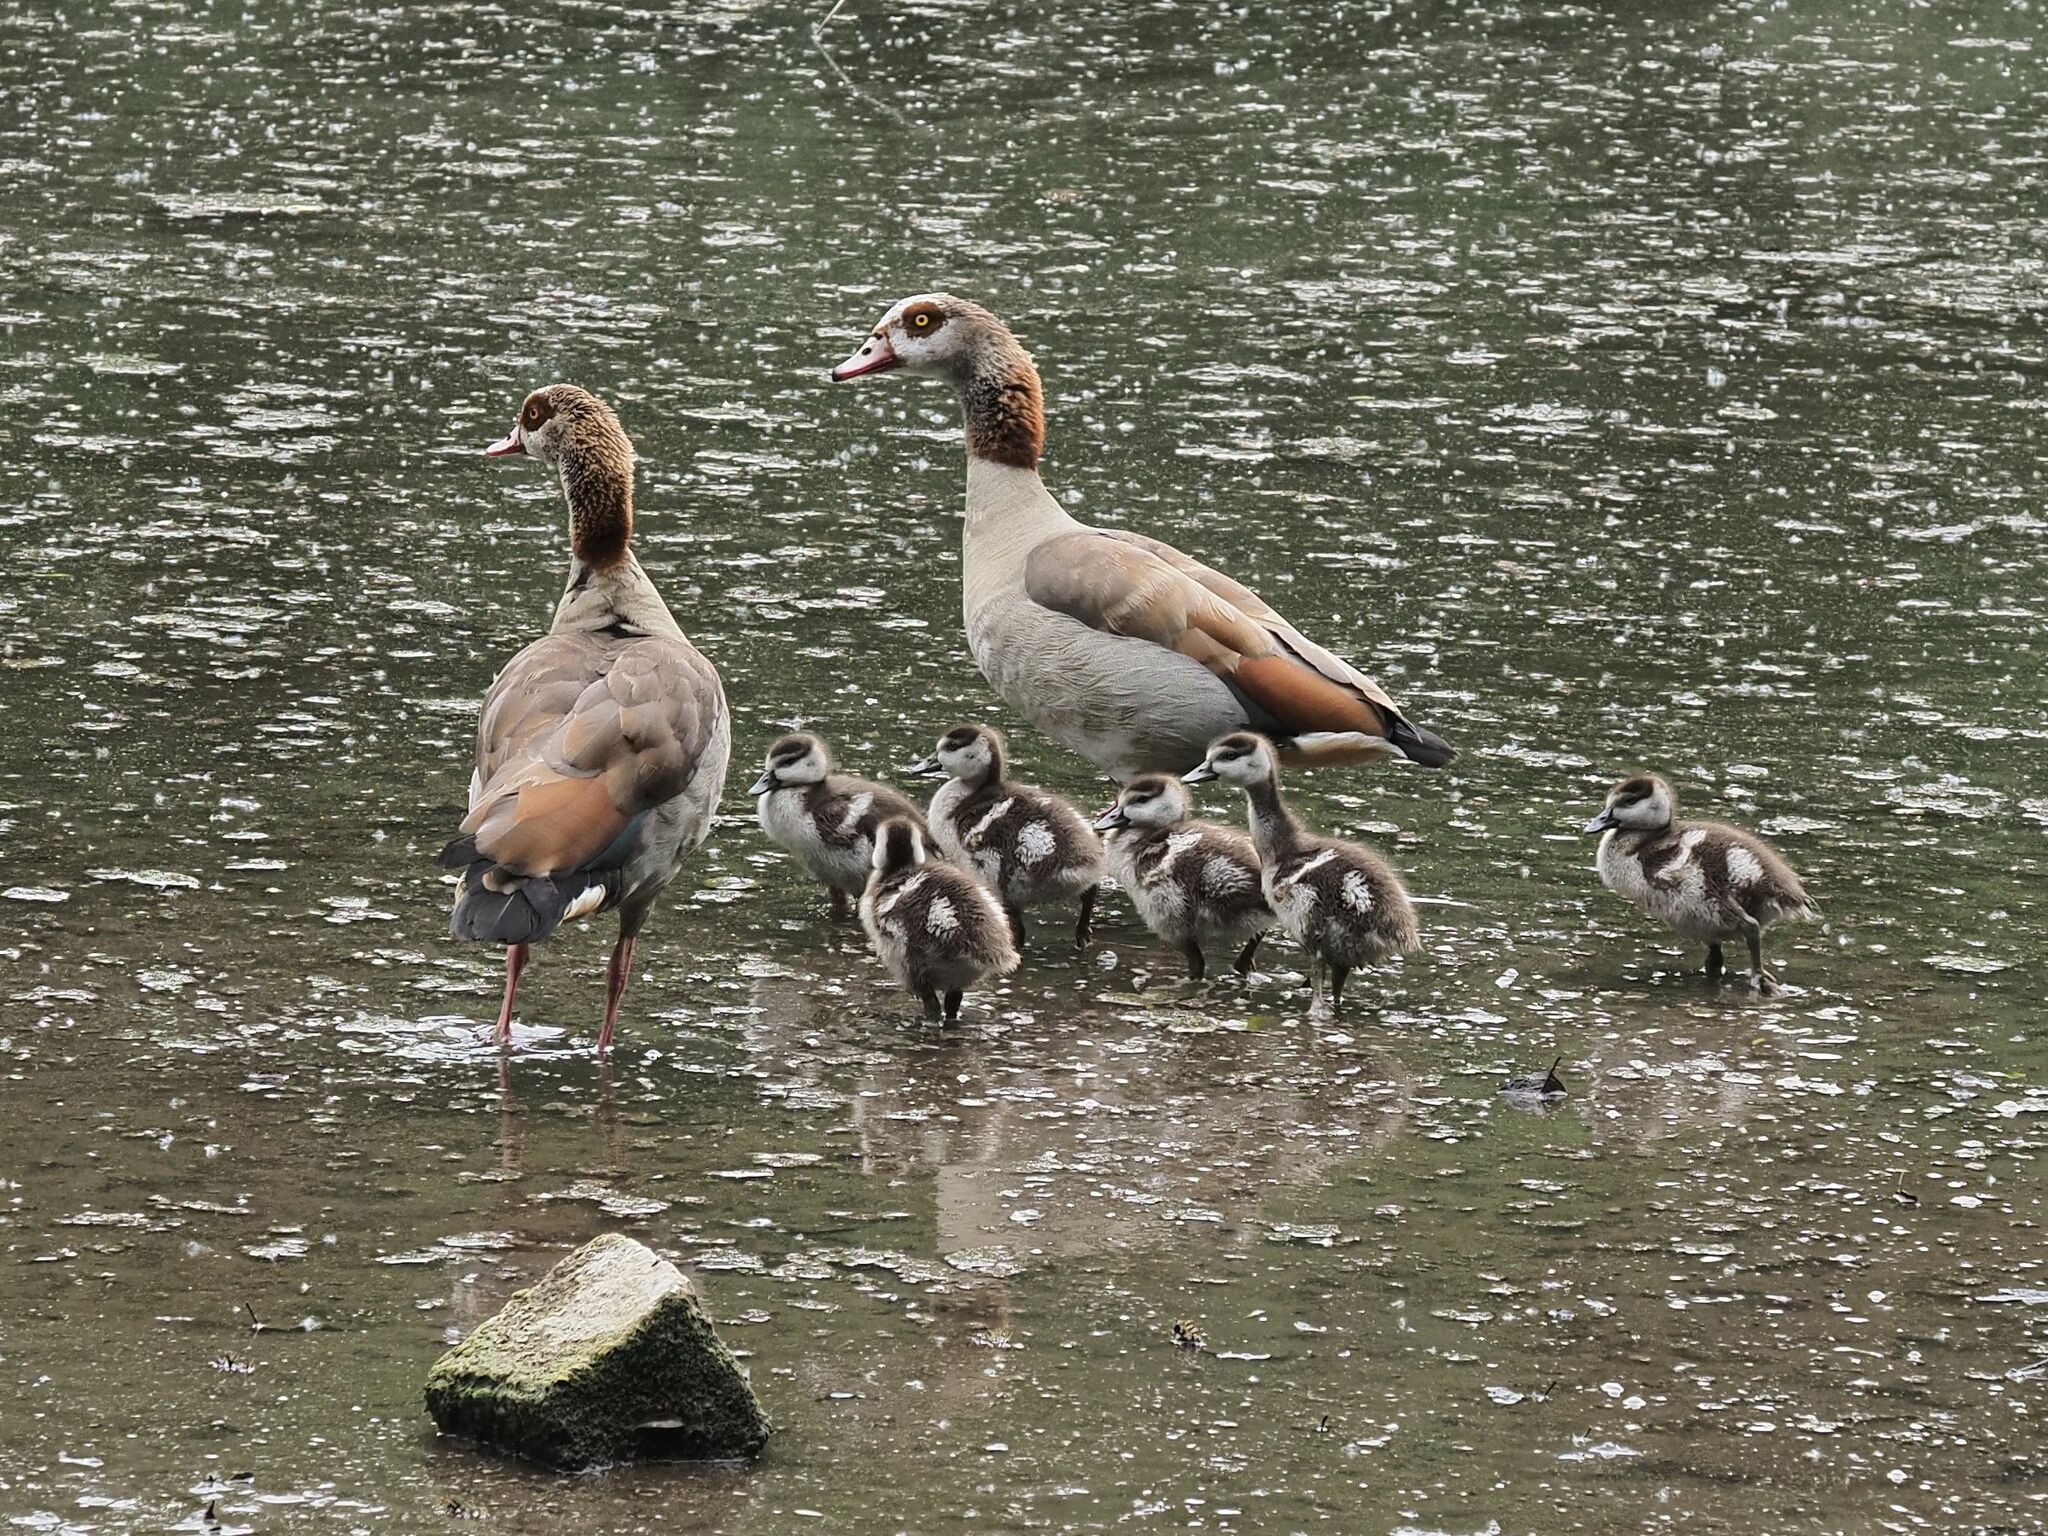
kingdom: Animalia
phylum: Chordata
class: Aves
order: Anseriformes
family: Anatidae
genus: Alopochen
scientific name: Alopochen aegyptiaca
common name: Egyptian goose
